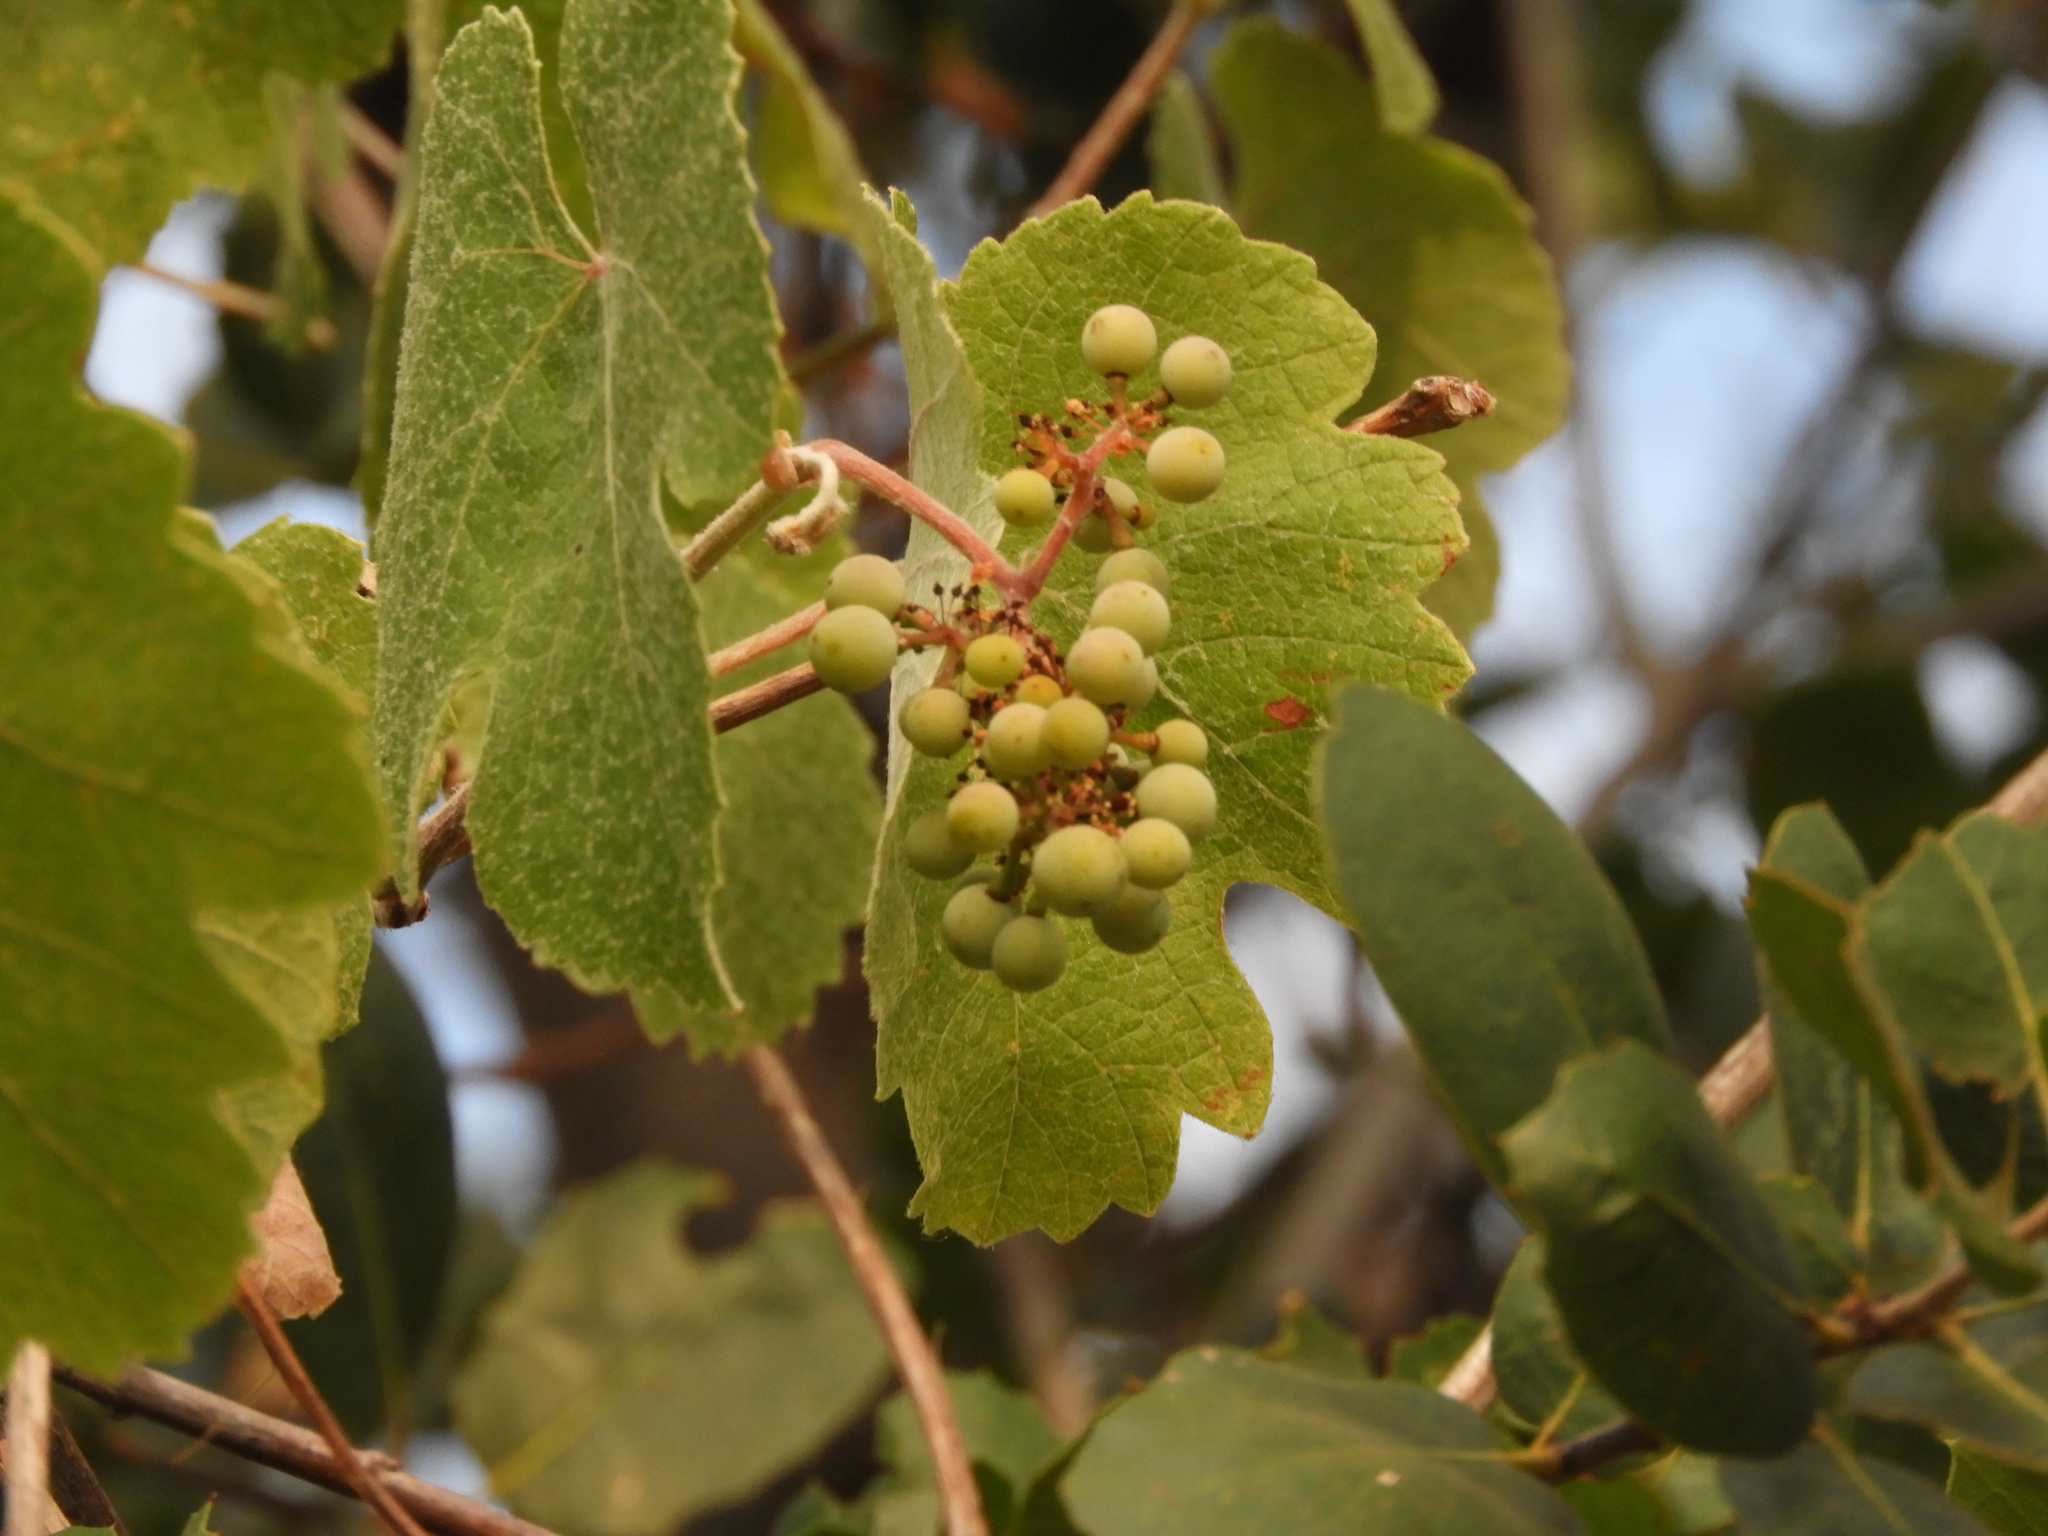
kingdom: Plantae
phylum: Tracheophyta
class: Magnoliopsida
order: Vitales
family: Vitaceae
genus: Vitis
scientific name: Vitis californica
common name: California wild grape
